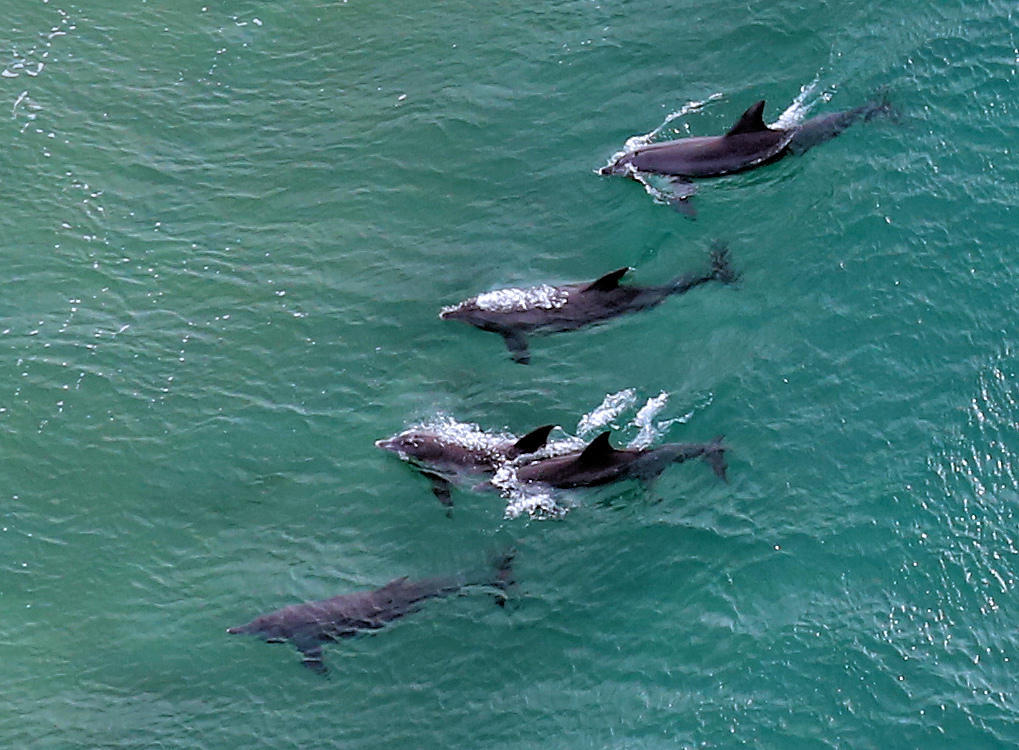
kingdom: Animalia
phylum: Chordata
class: Mammalia
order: Cetacea
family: Delphinidae
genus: Tursiops
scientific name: Tursiops aduncus
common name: Indo-pacific bottlenose dolphin
